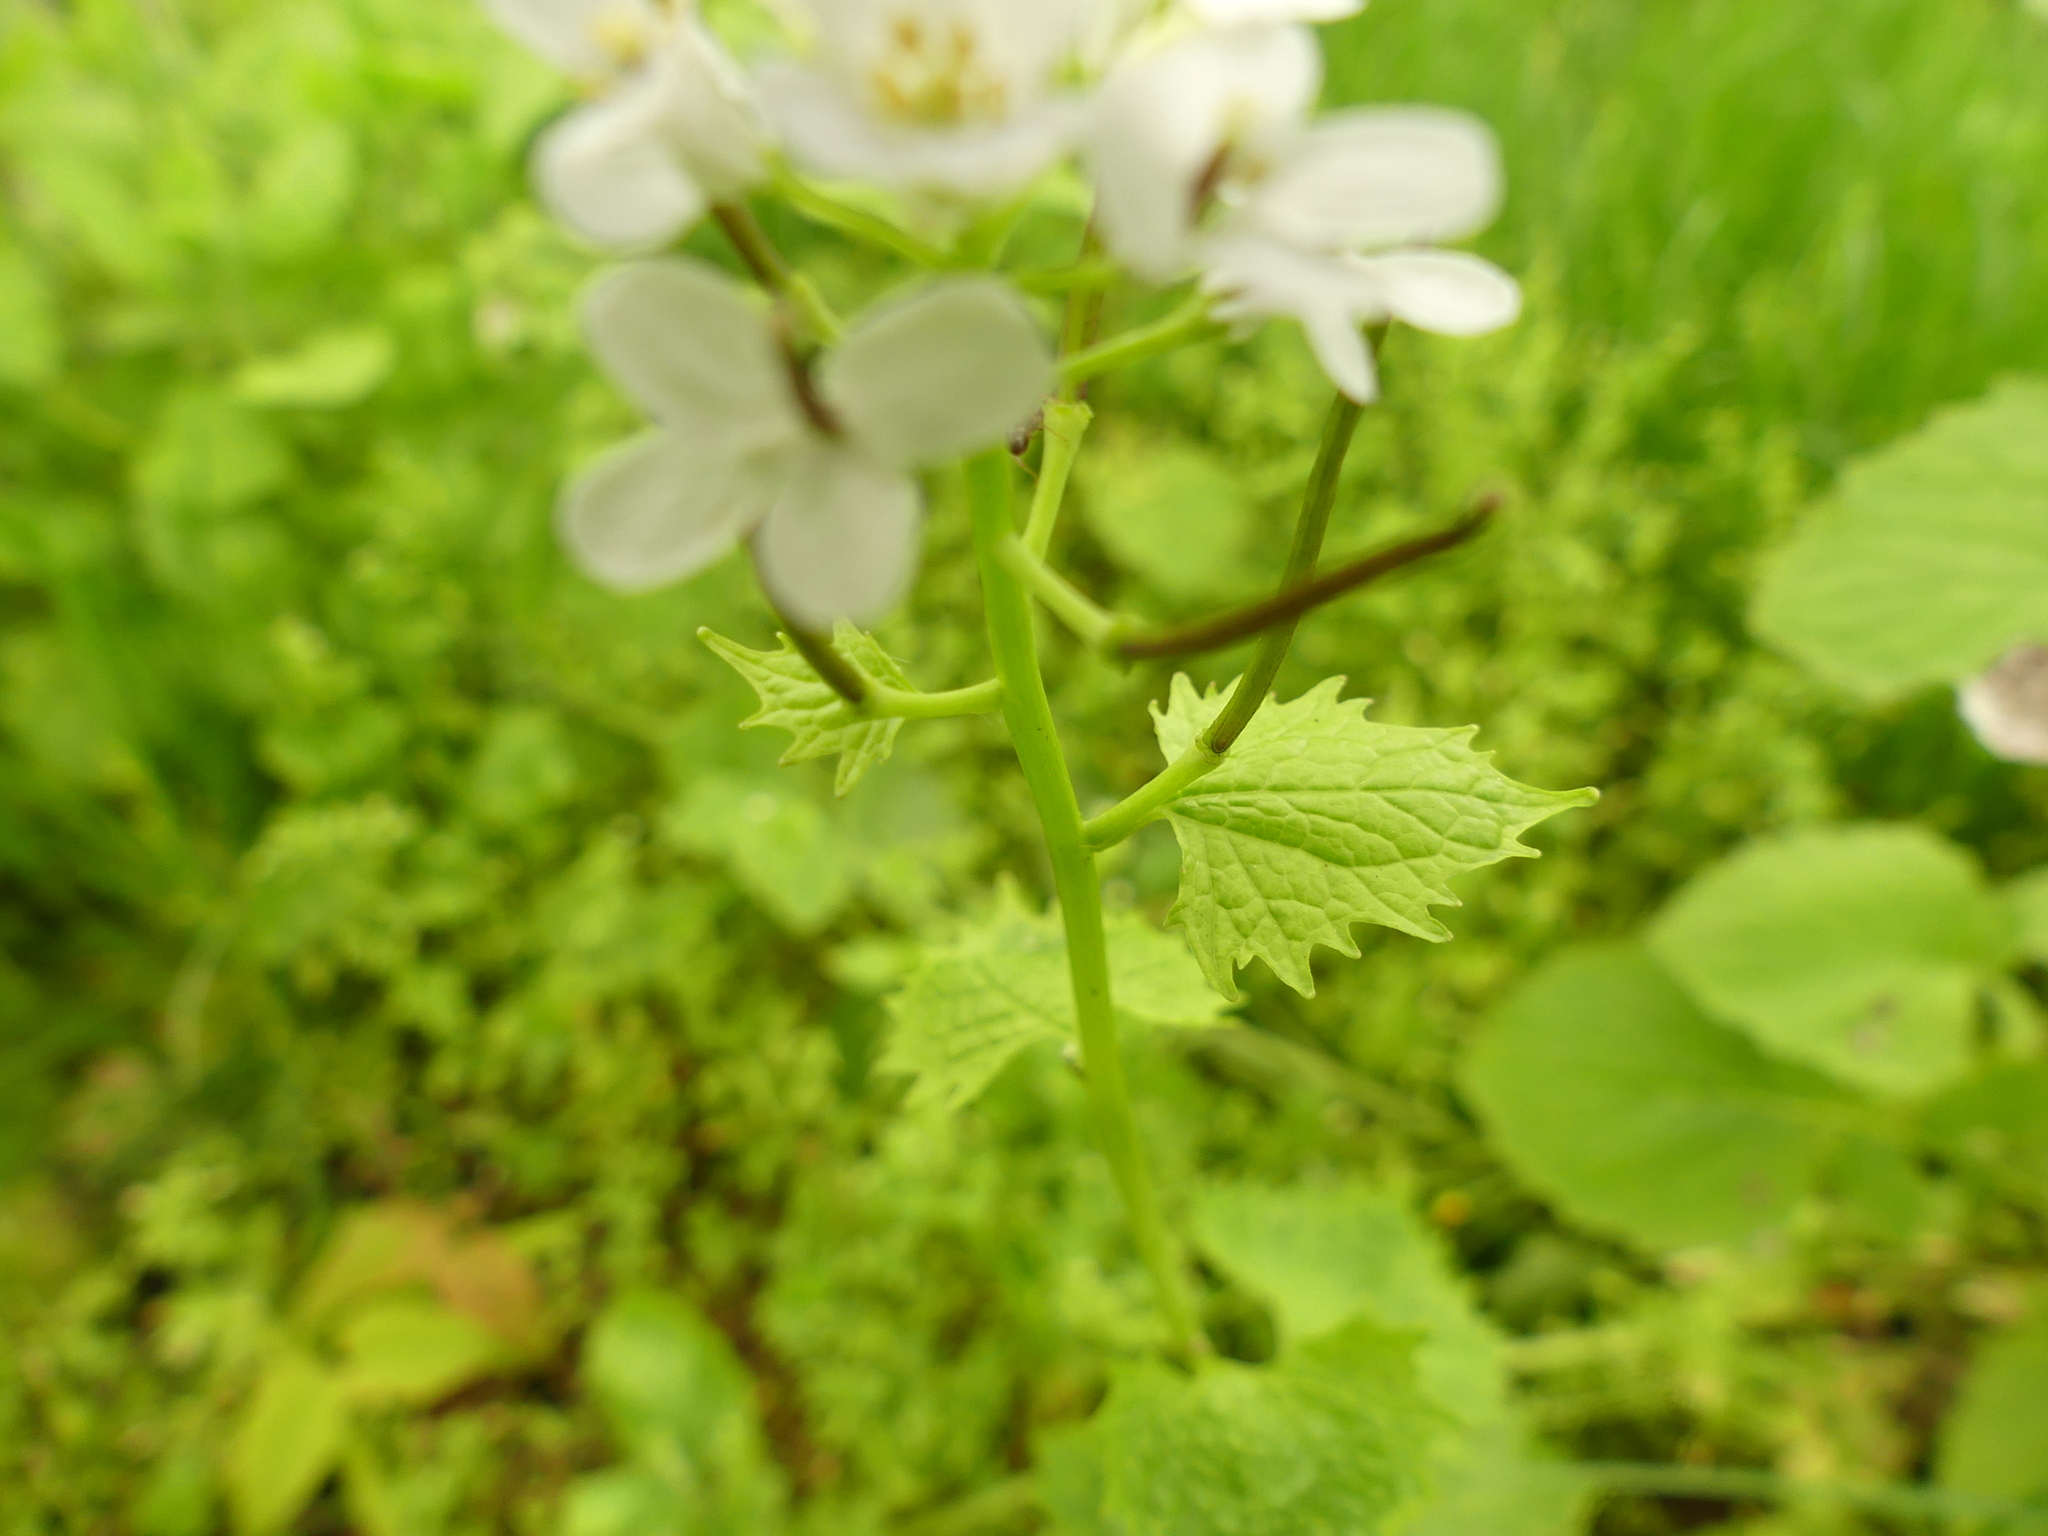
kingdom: Plantae
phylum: Tracheophyta
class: Magnoliopsida
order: Brassicales
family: Brassicaceae
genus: Alliaria
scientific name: Alliaria petiolata
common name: Garlic mustard
